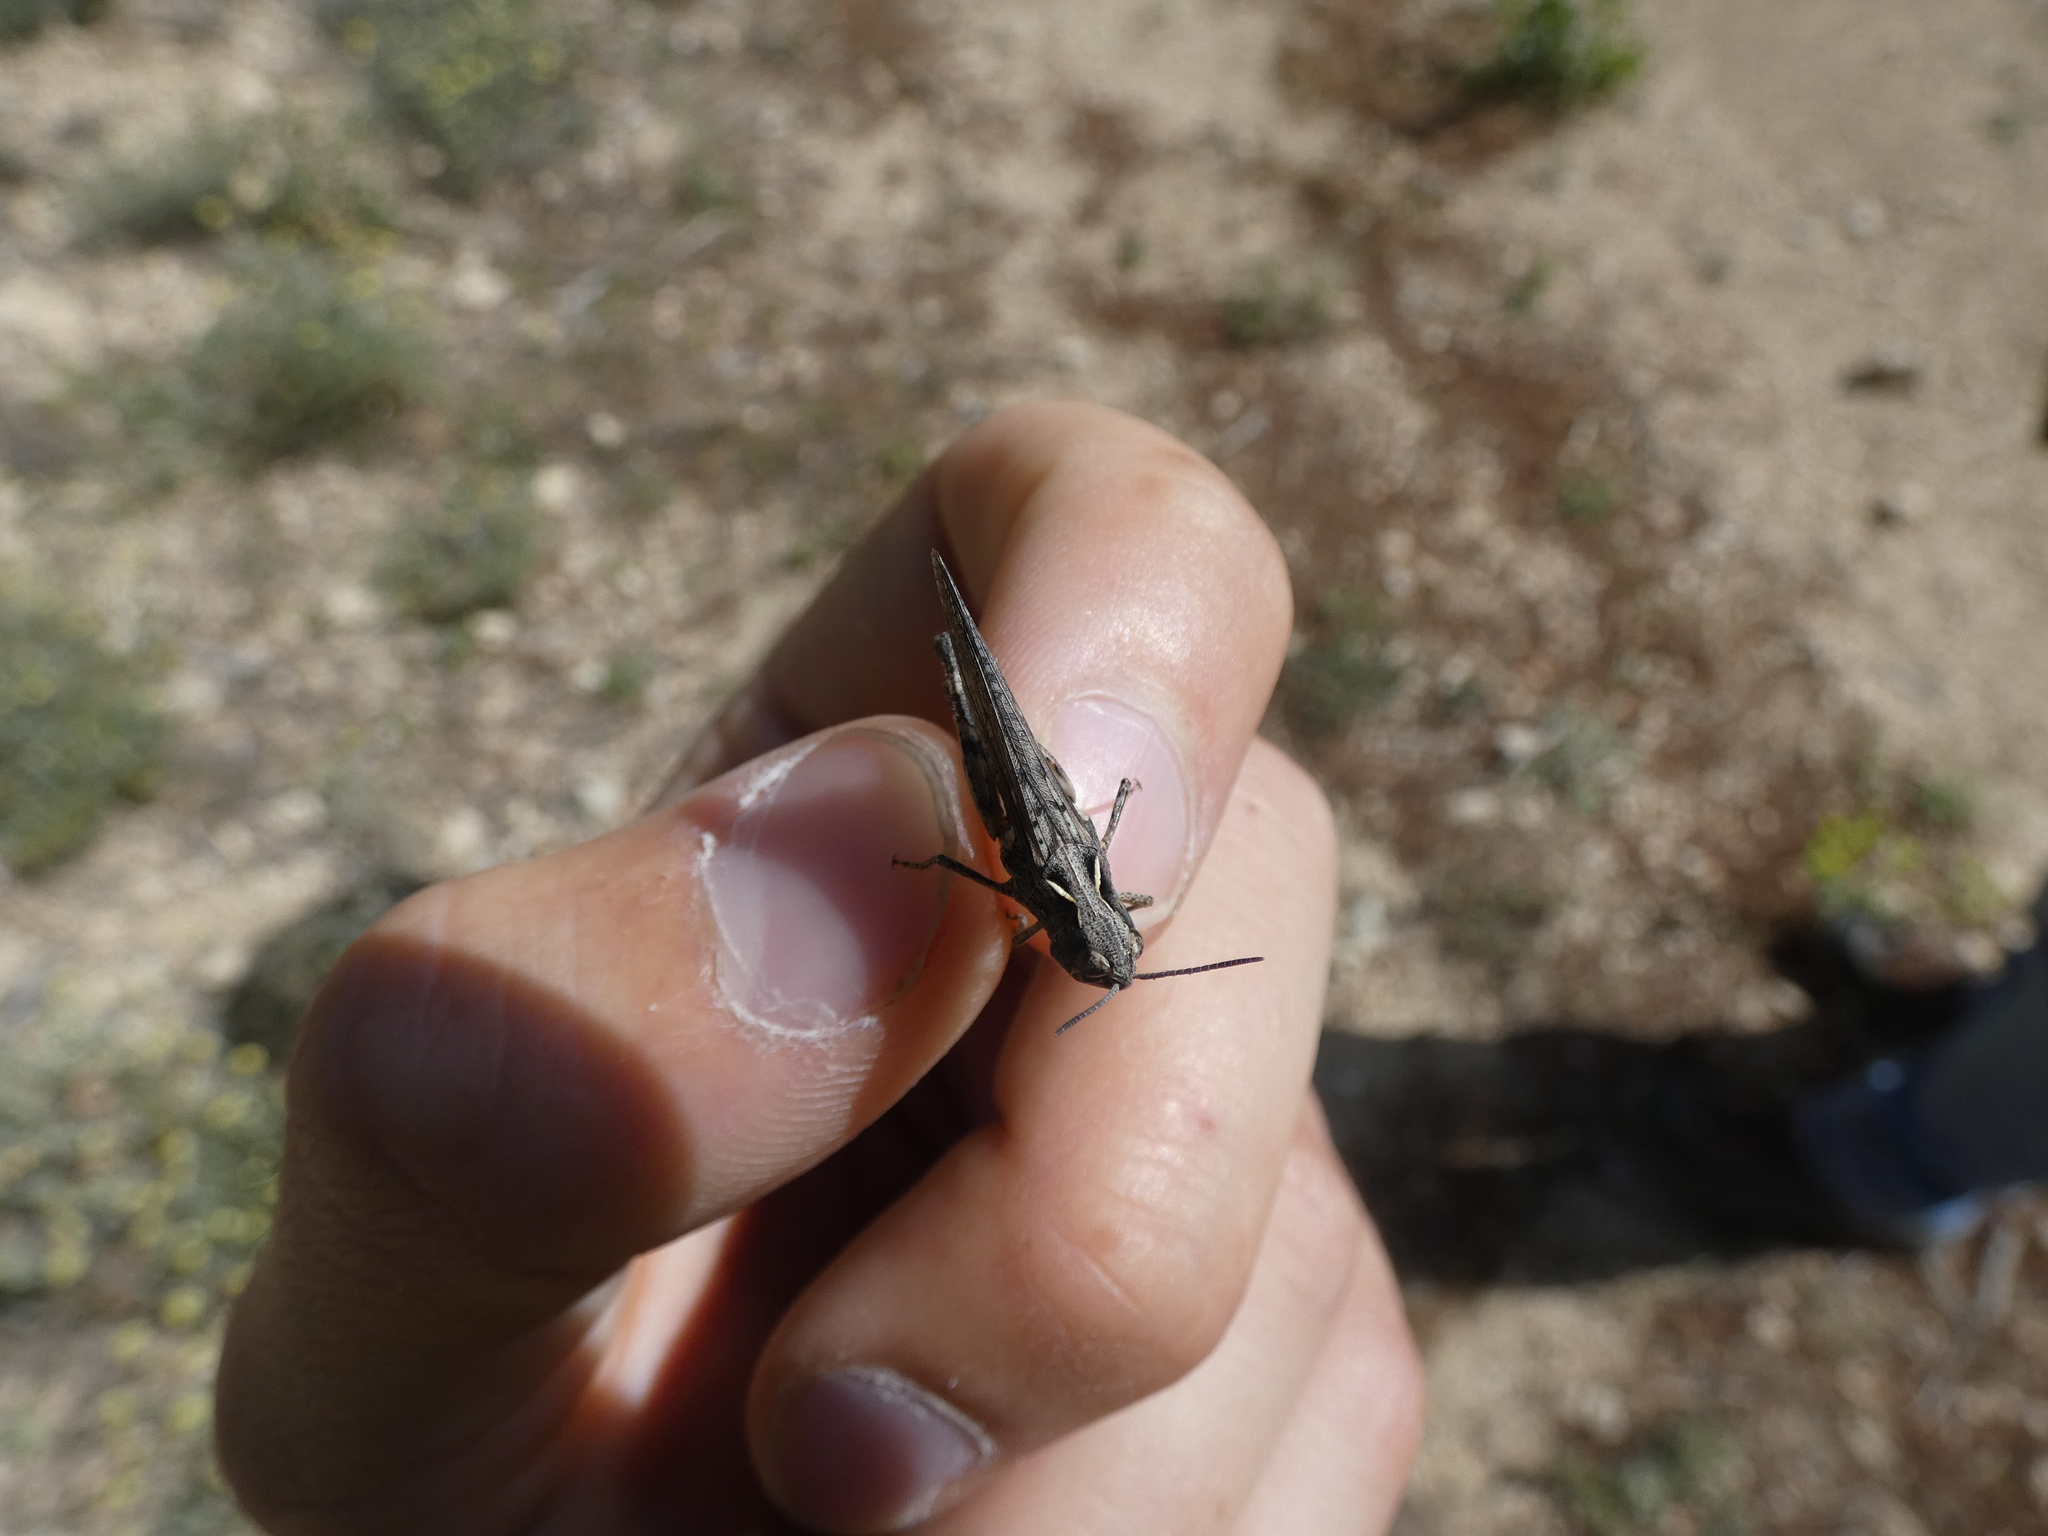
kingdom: Animalia
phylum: Arthropoda
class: Insecta
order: Orthoptera
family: Acrididae
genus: Omocestus
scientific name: Omocestus raymondi
